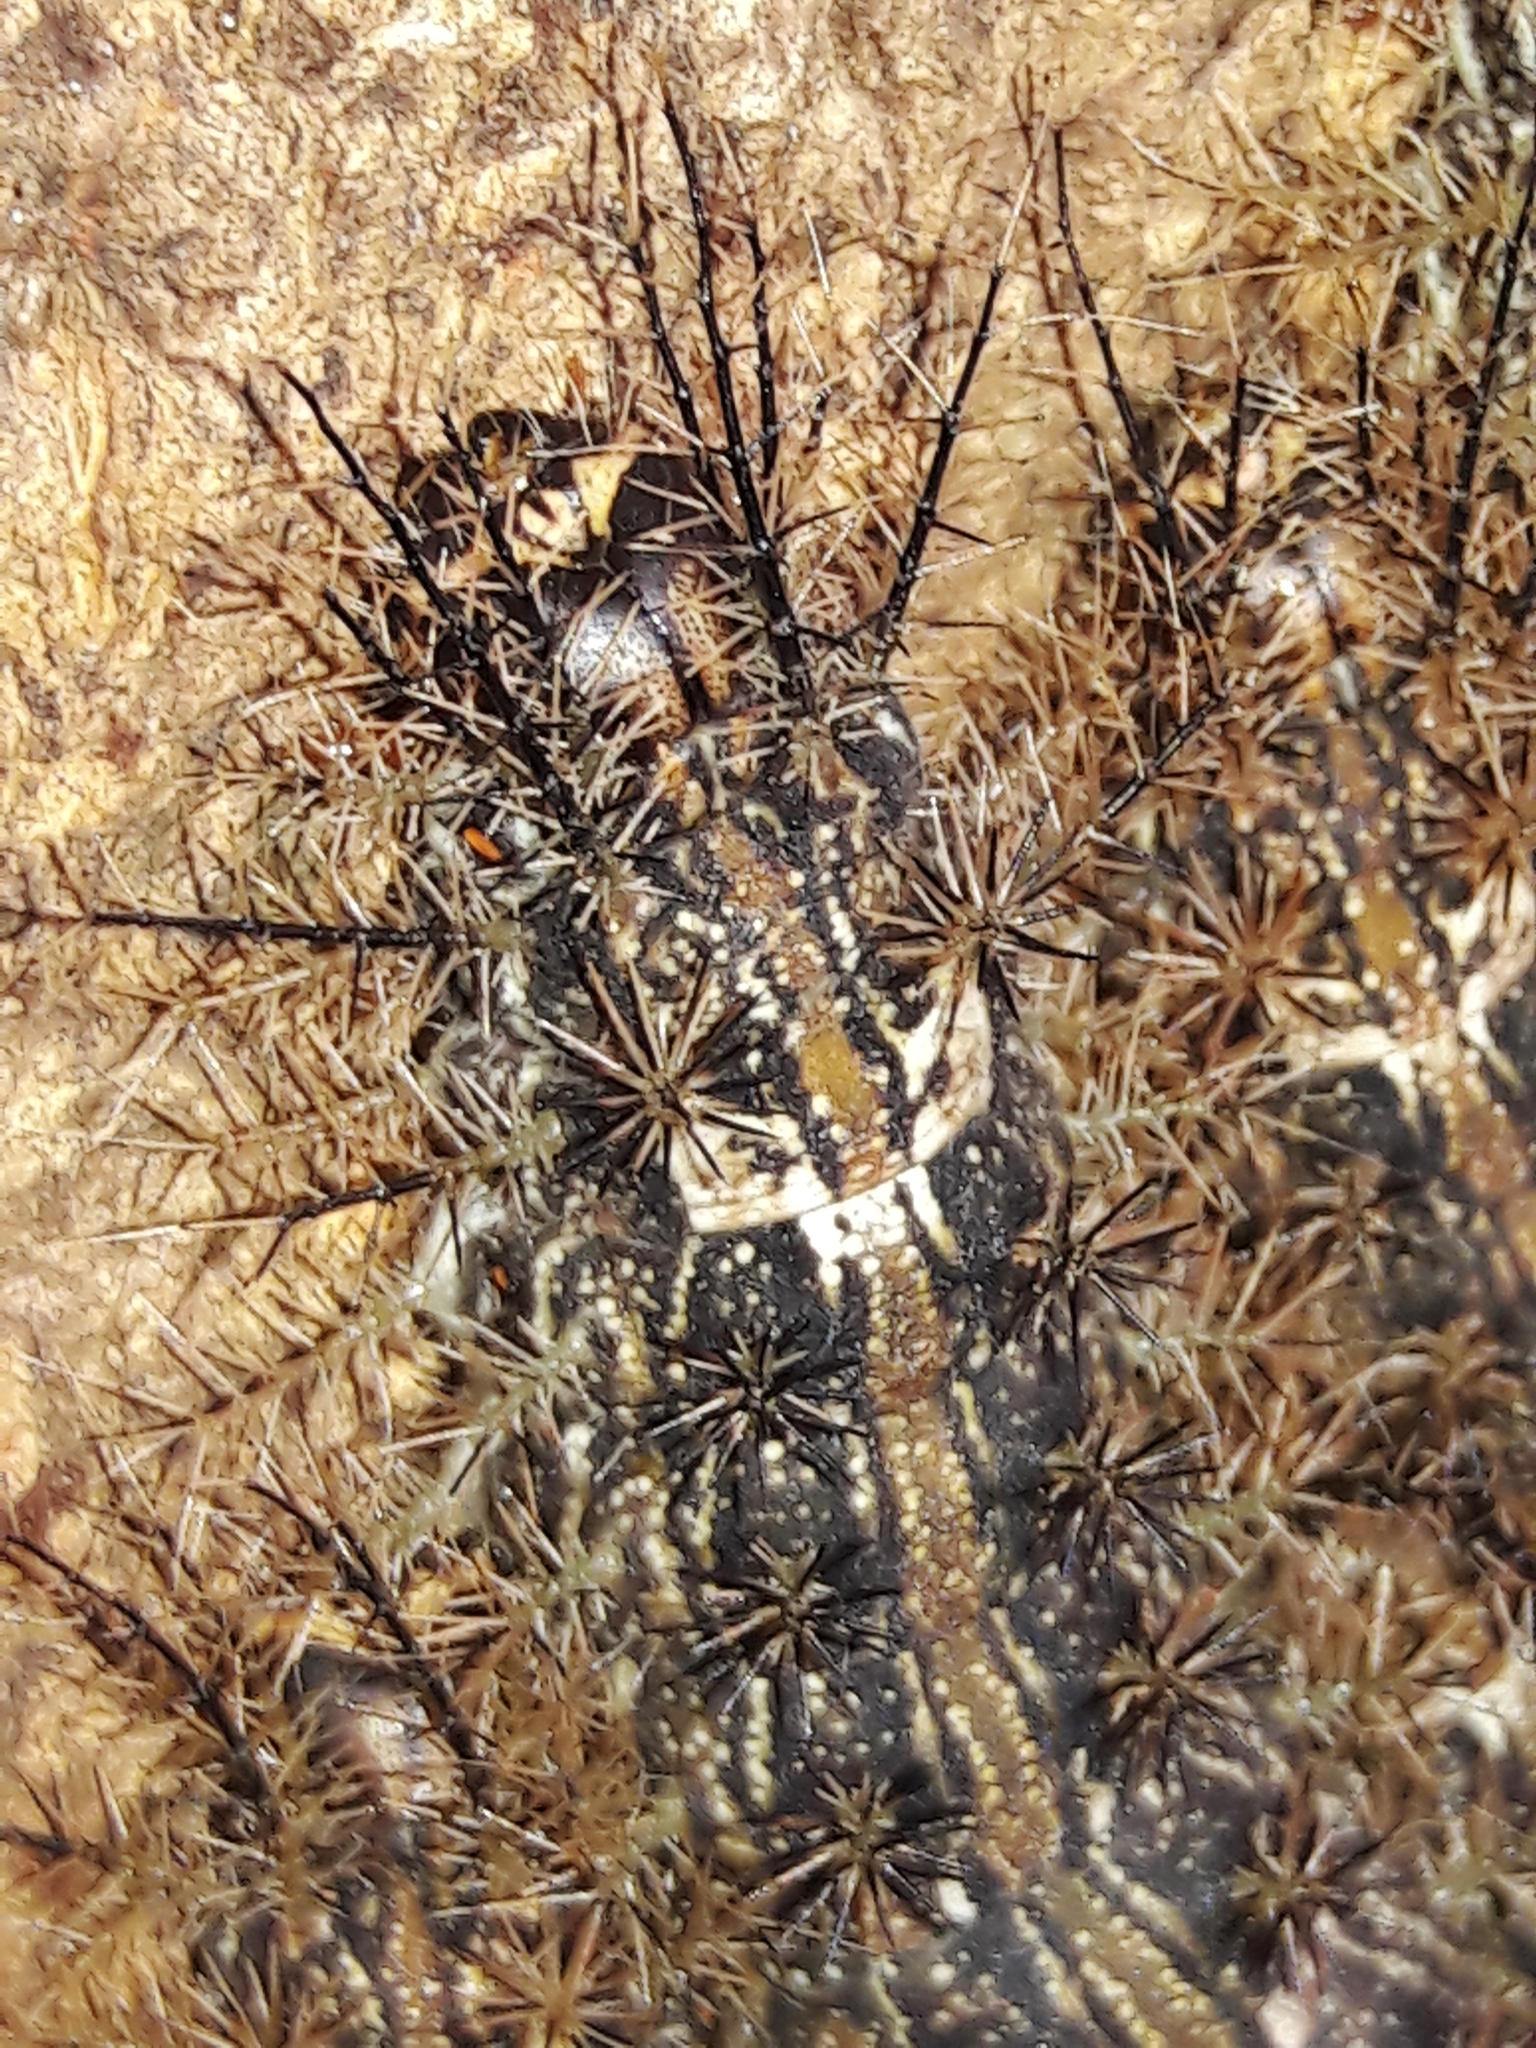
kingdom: Animalia
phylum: Arthropoda
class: Insecta
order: Lepidoptera
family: Saturniidae
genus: Lonomia
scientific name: Lonomia obliqua
